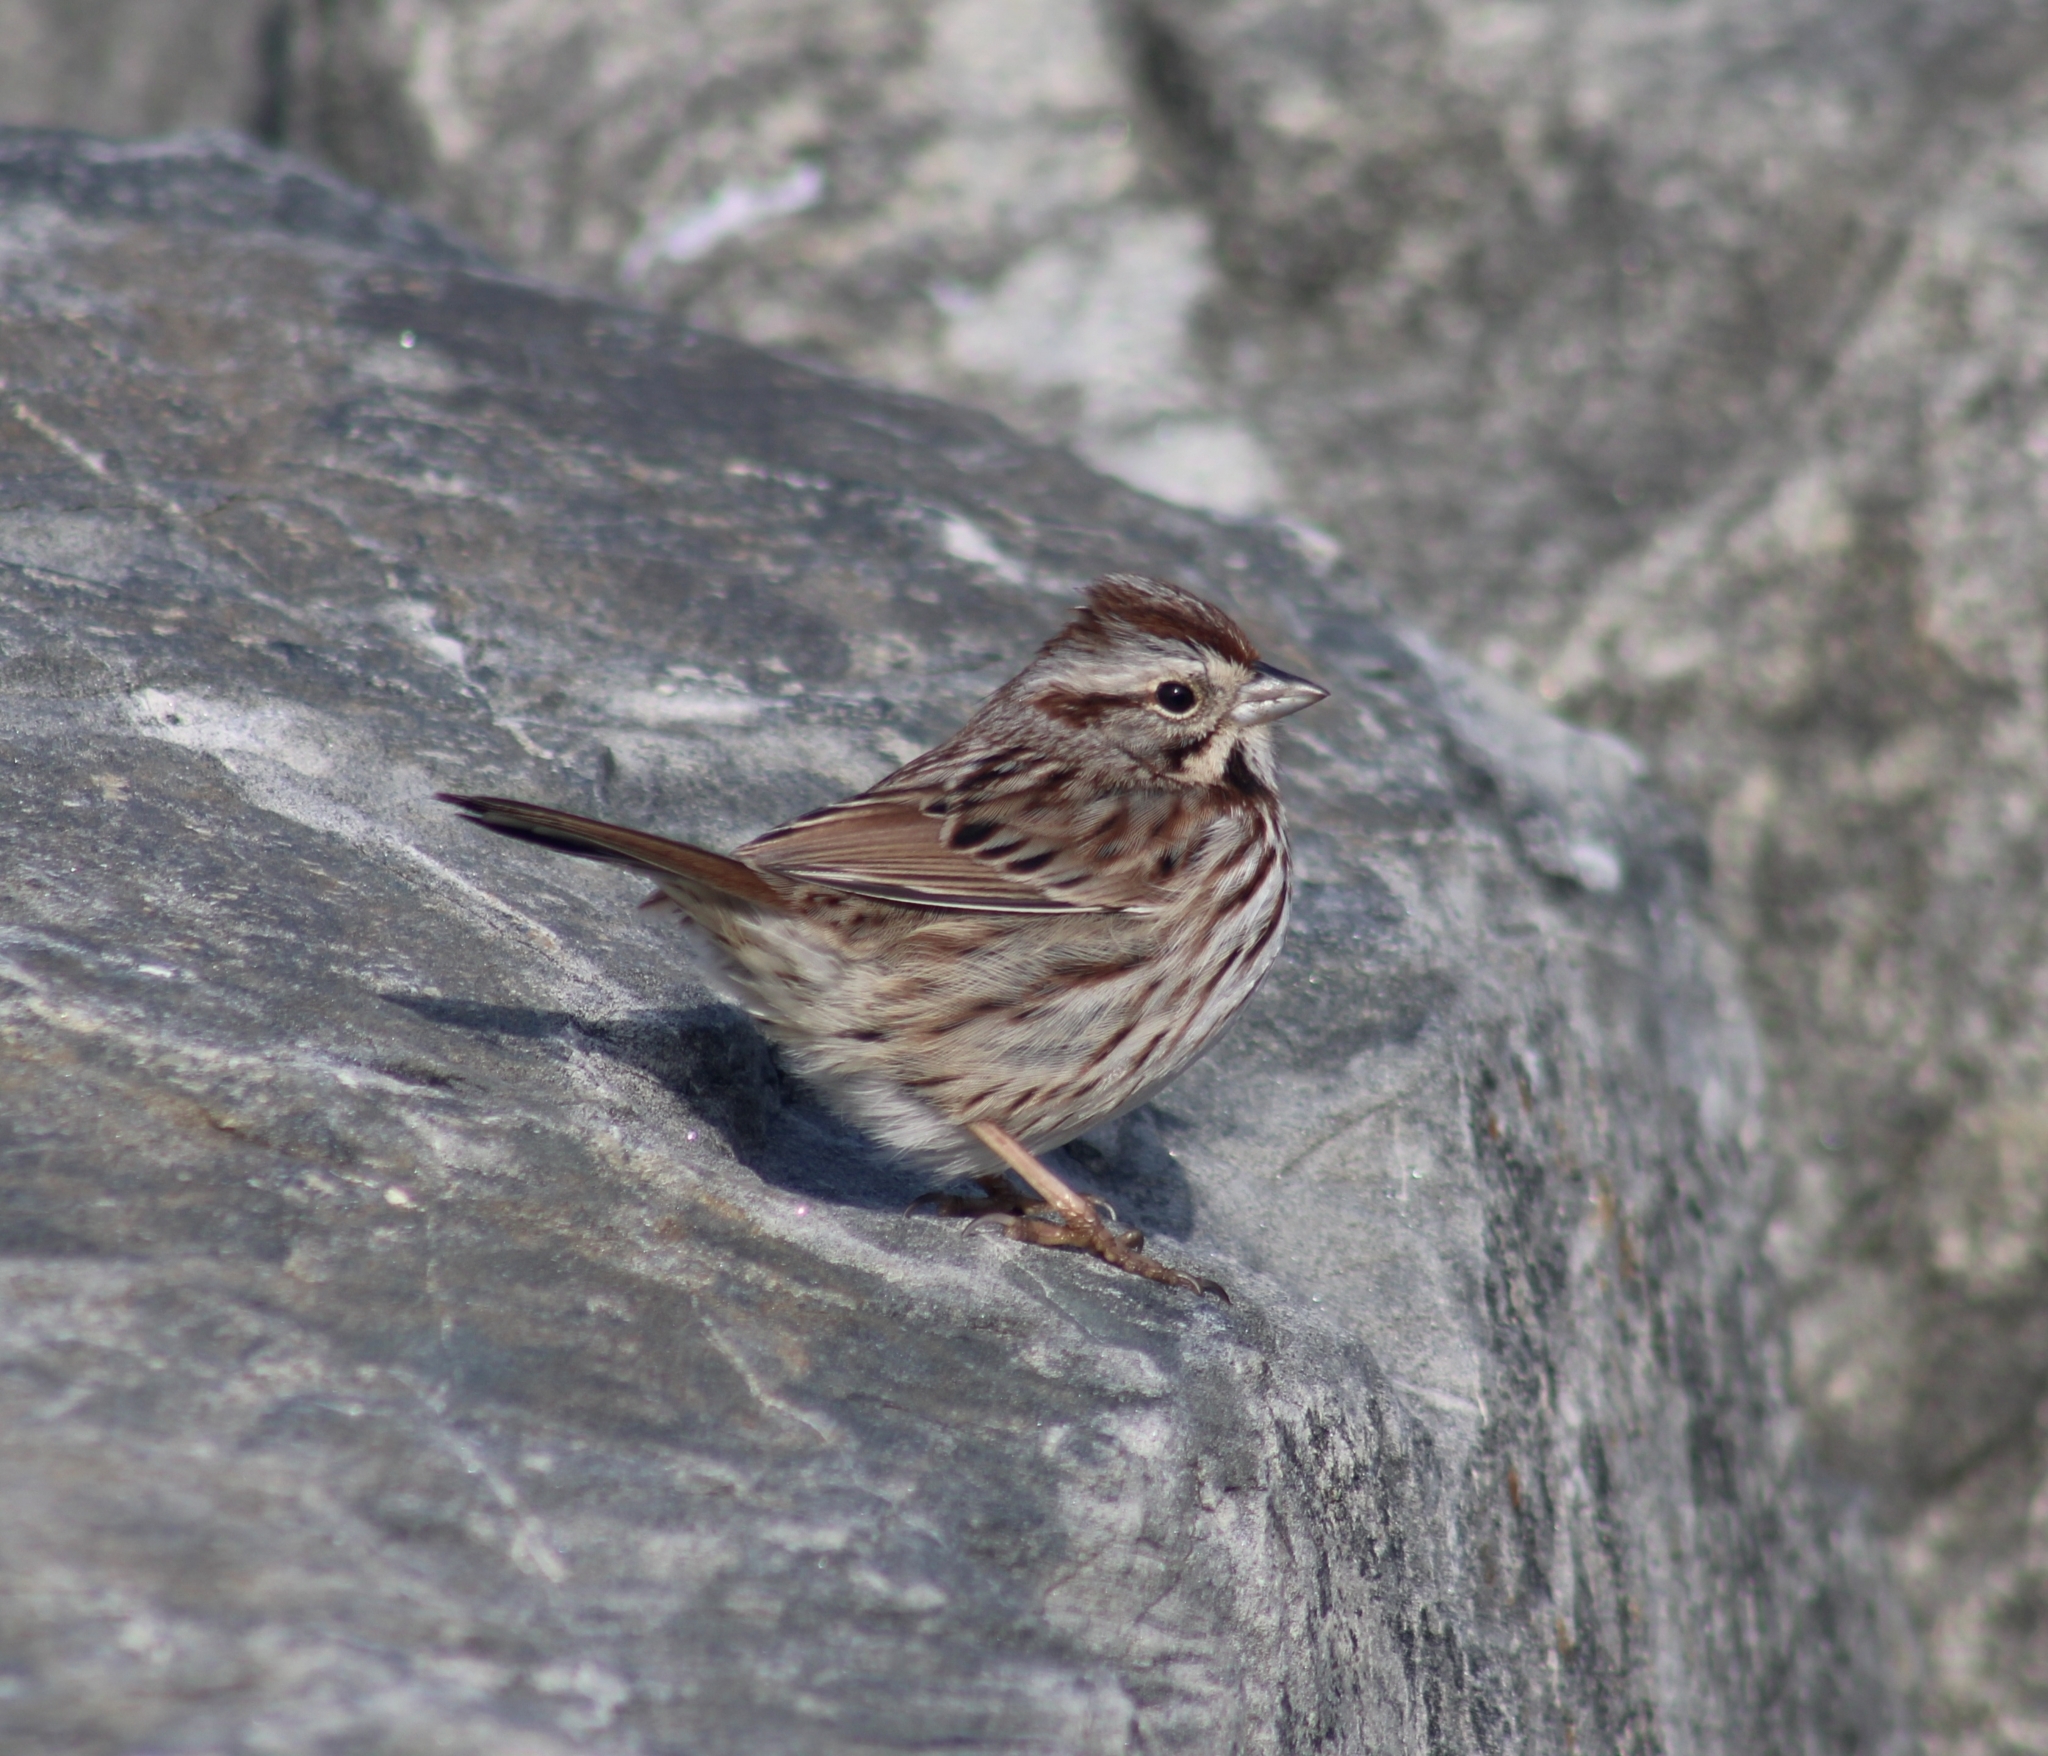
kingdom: Animalia
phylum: Chordata
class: Aves
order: Passeriformes
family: Passerellidae
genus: Melospiza
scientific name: Melospiza melodia
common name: Song sparrow
